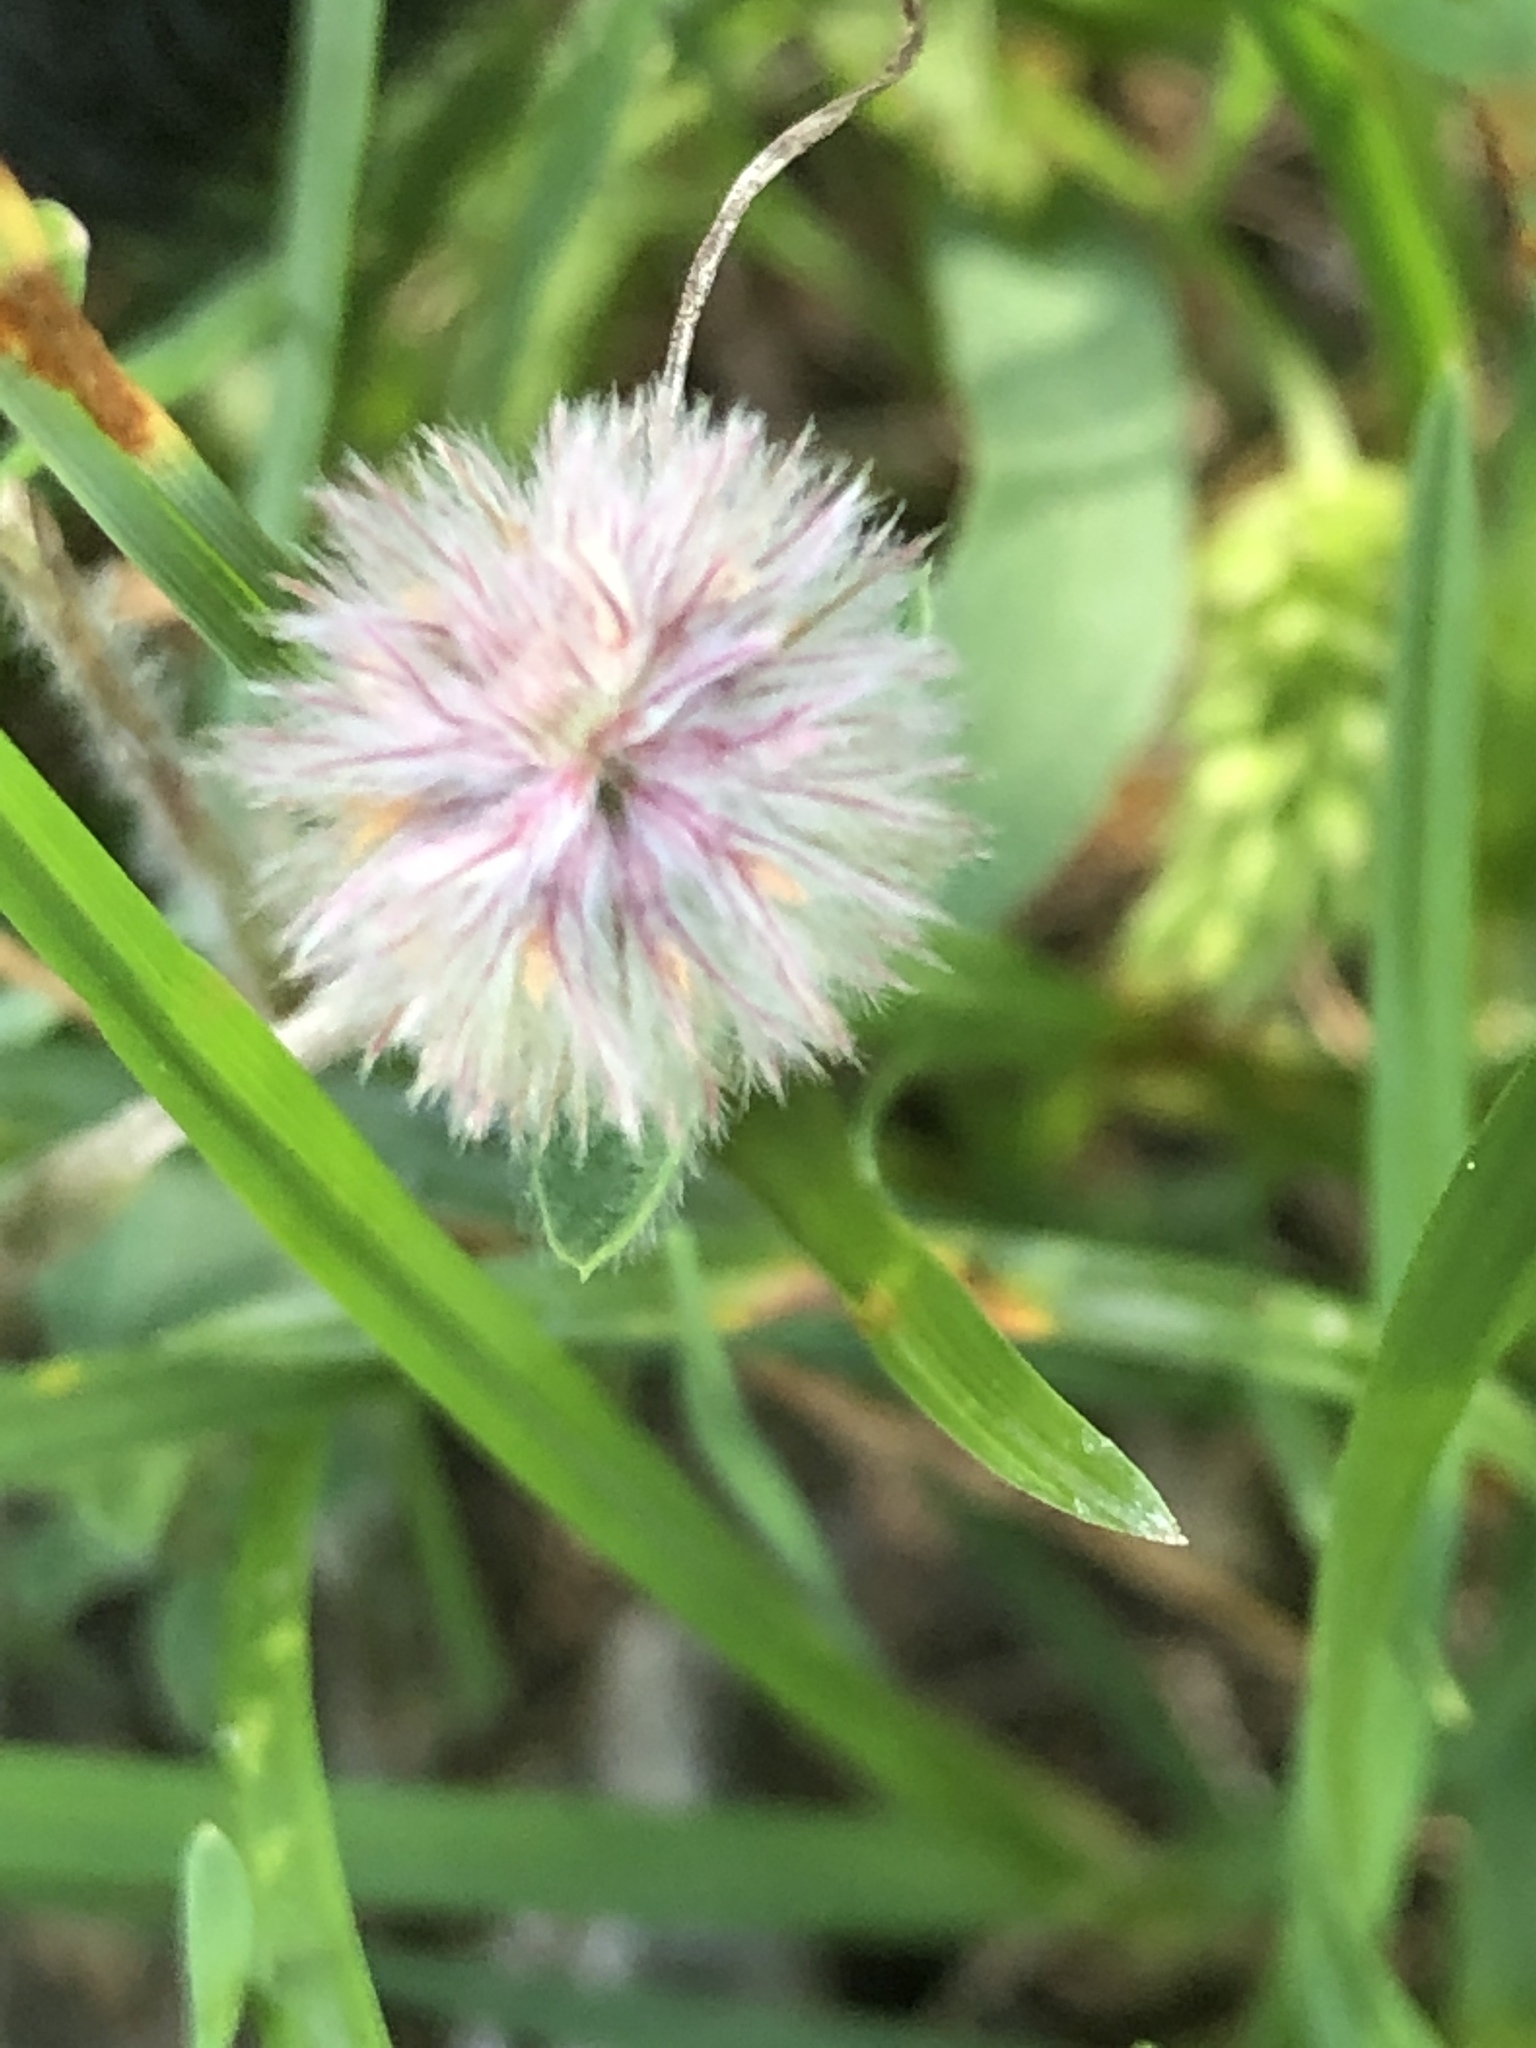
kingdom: Plantae
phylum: Tracheophyta
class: Magnoliopsida
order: Fabales
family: Fabaceae
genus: Trifolium
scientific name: Trifolium arvense
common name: Hare's-foot clover
